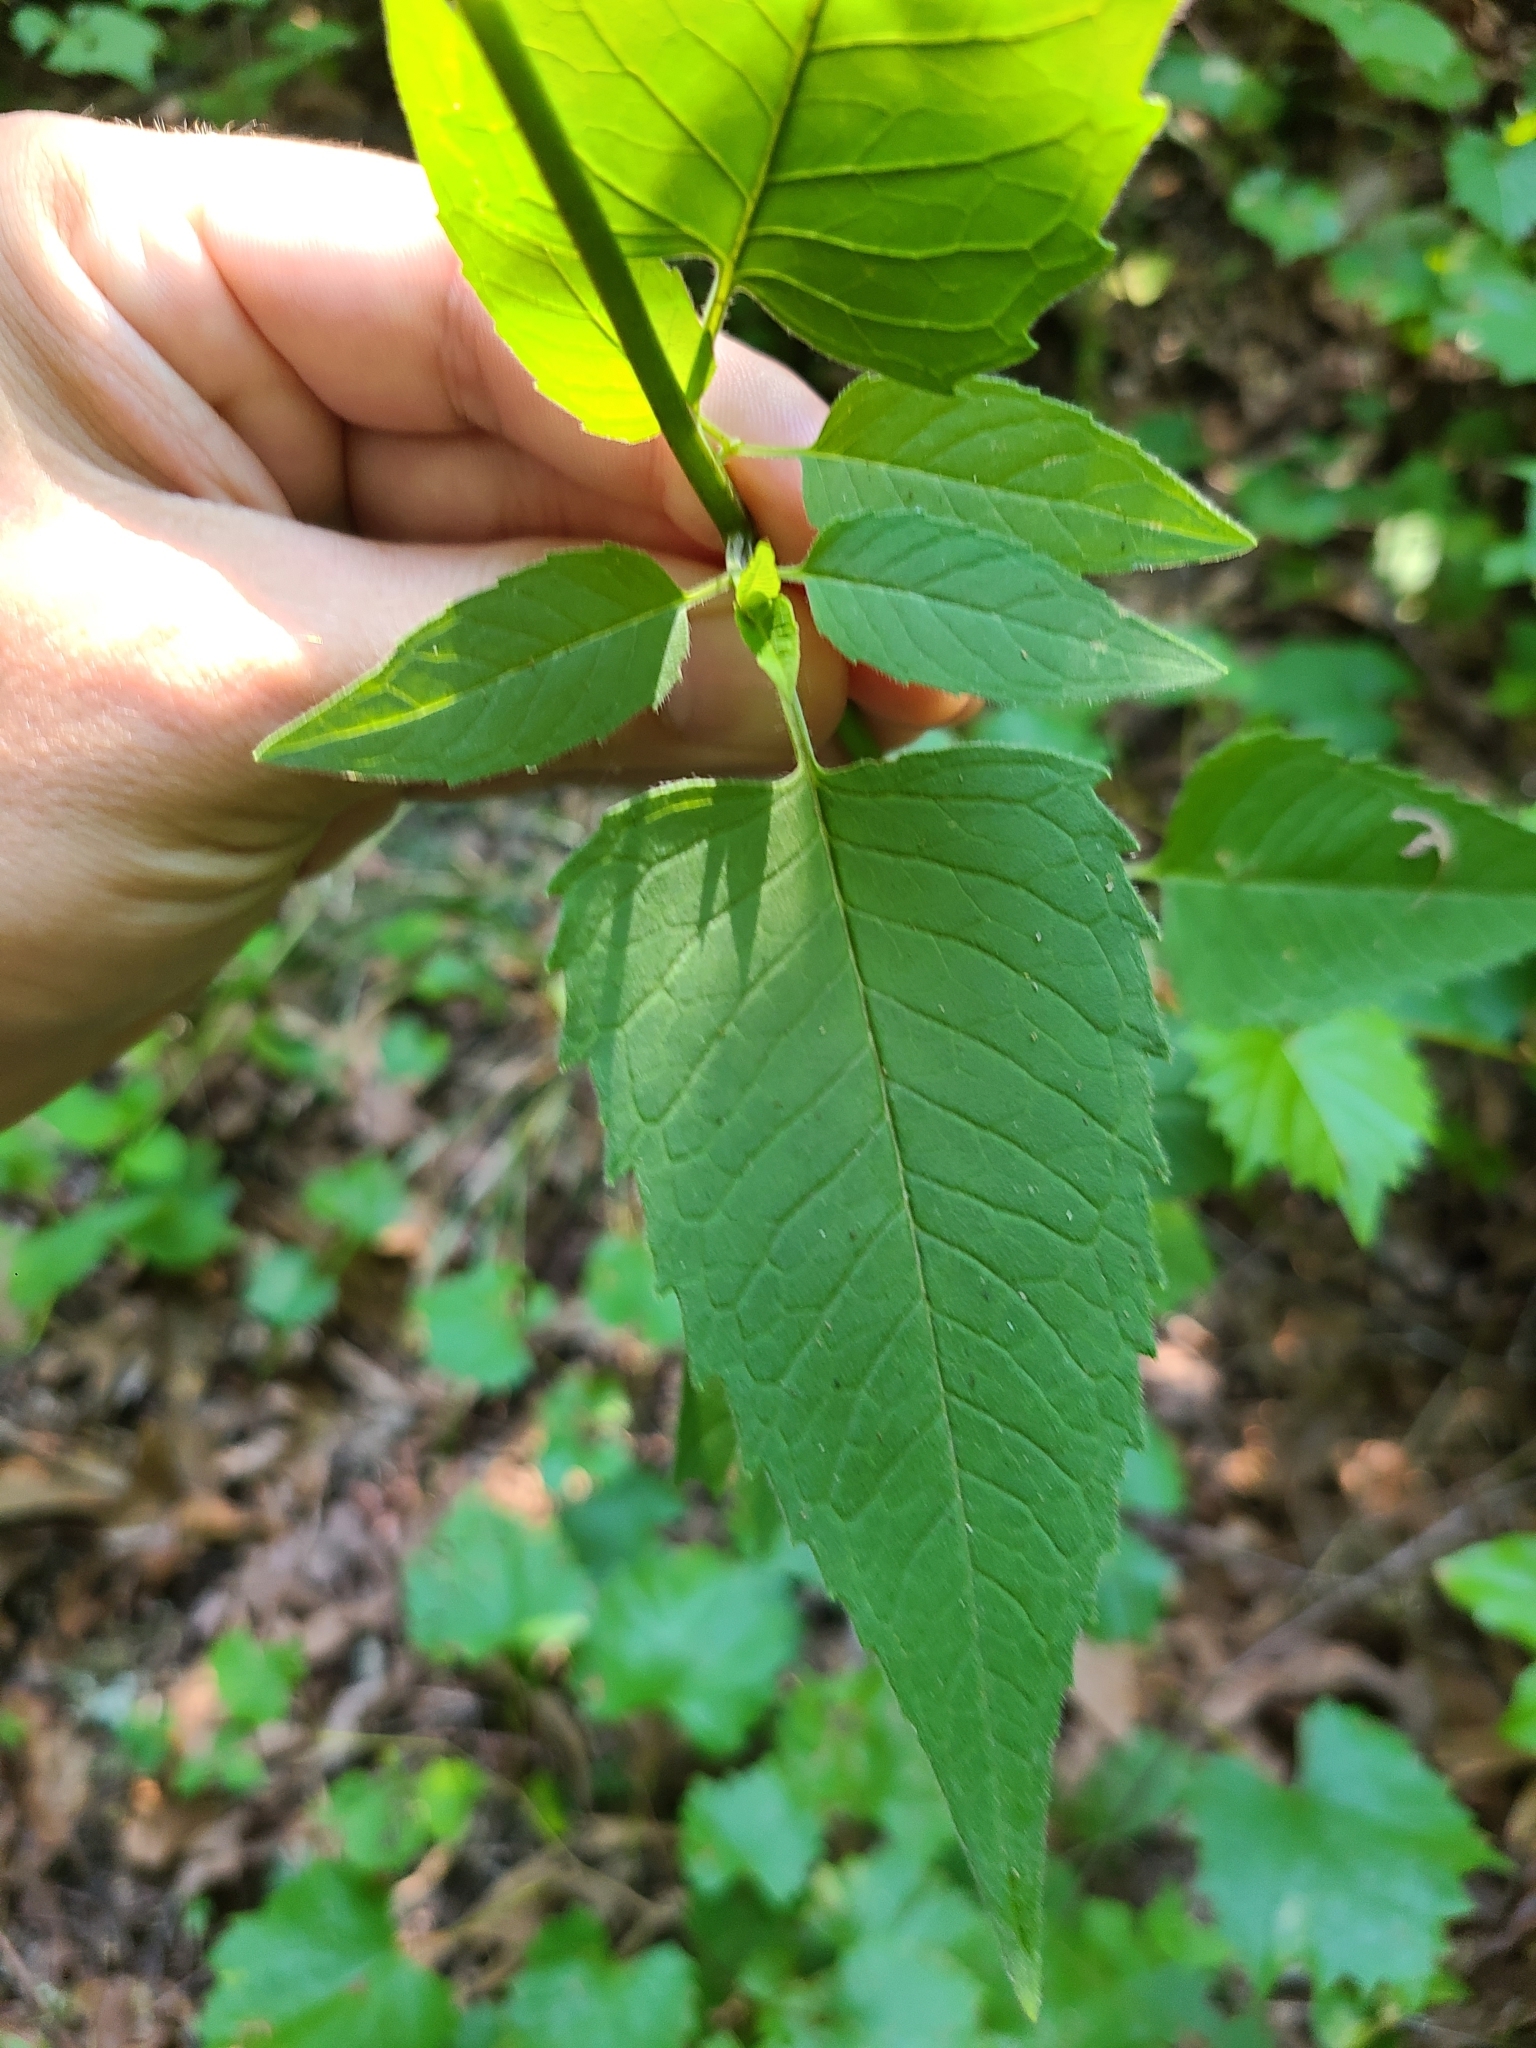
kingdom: Plantae
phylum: Tracheophyta
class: Magnoliopsida
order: Lamiales
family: Lamiaceae
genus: Monarda
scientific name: Monarda fistulosa
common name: Purple beebalm
